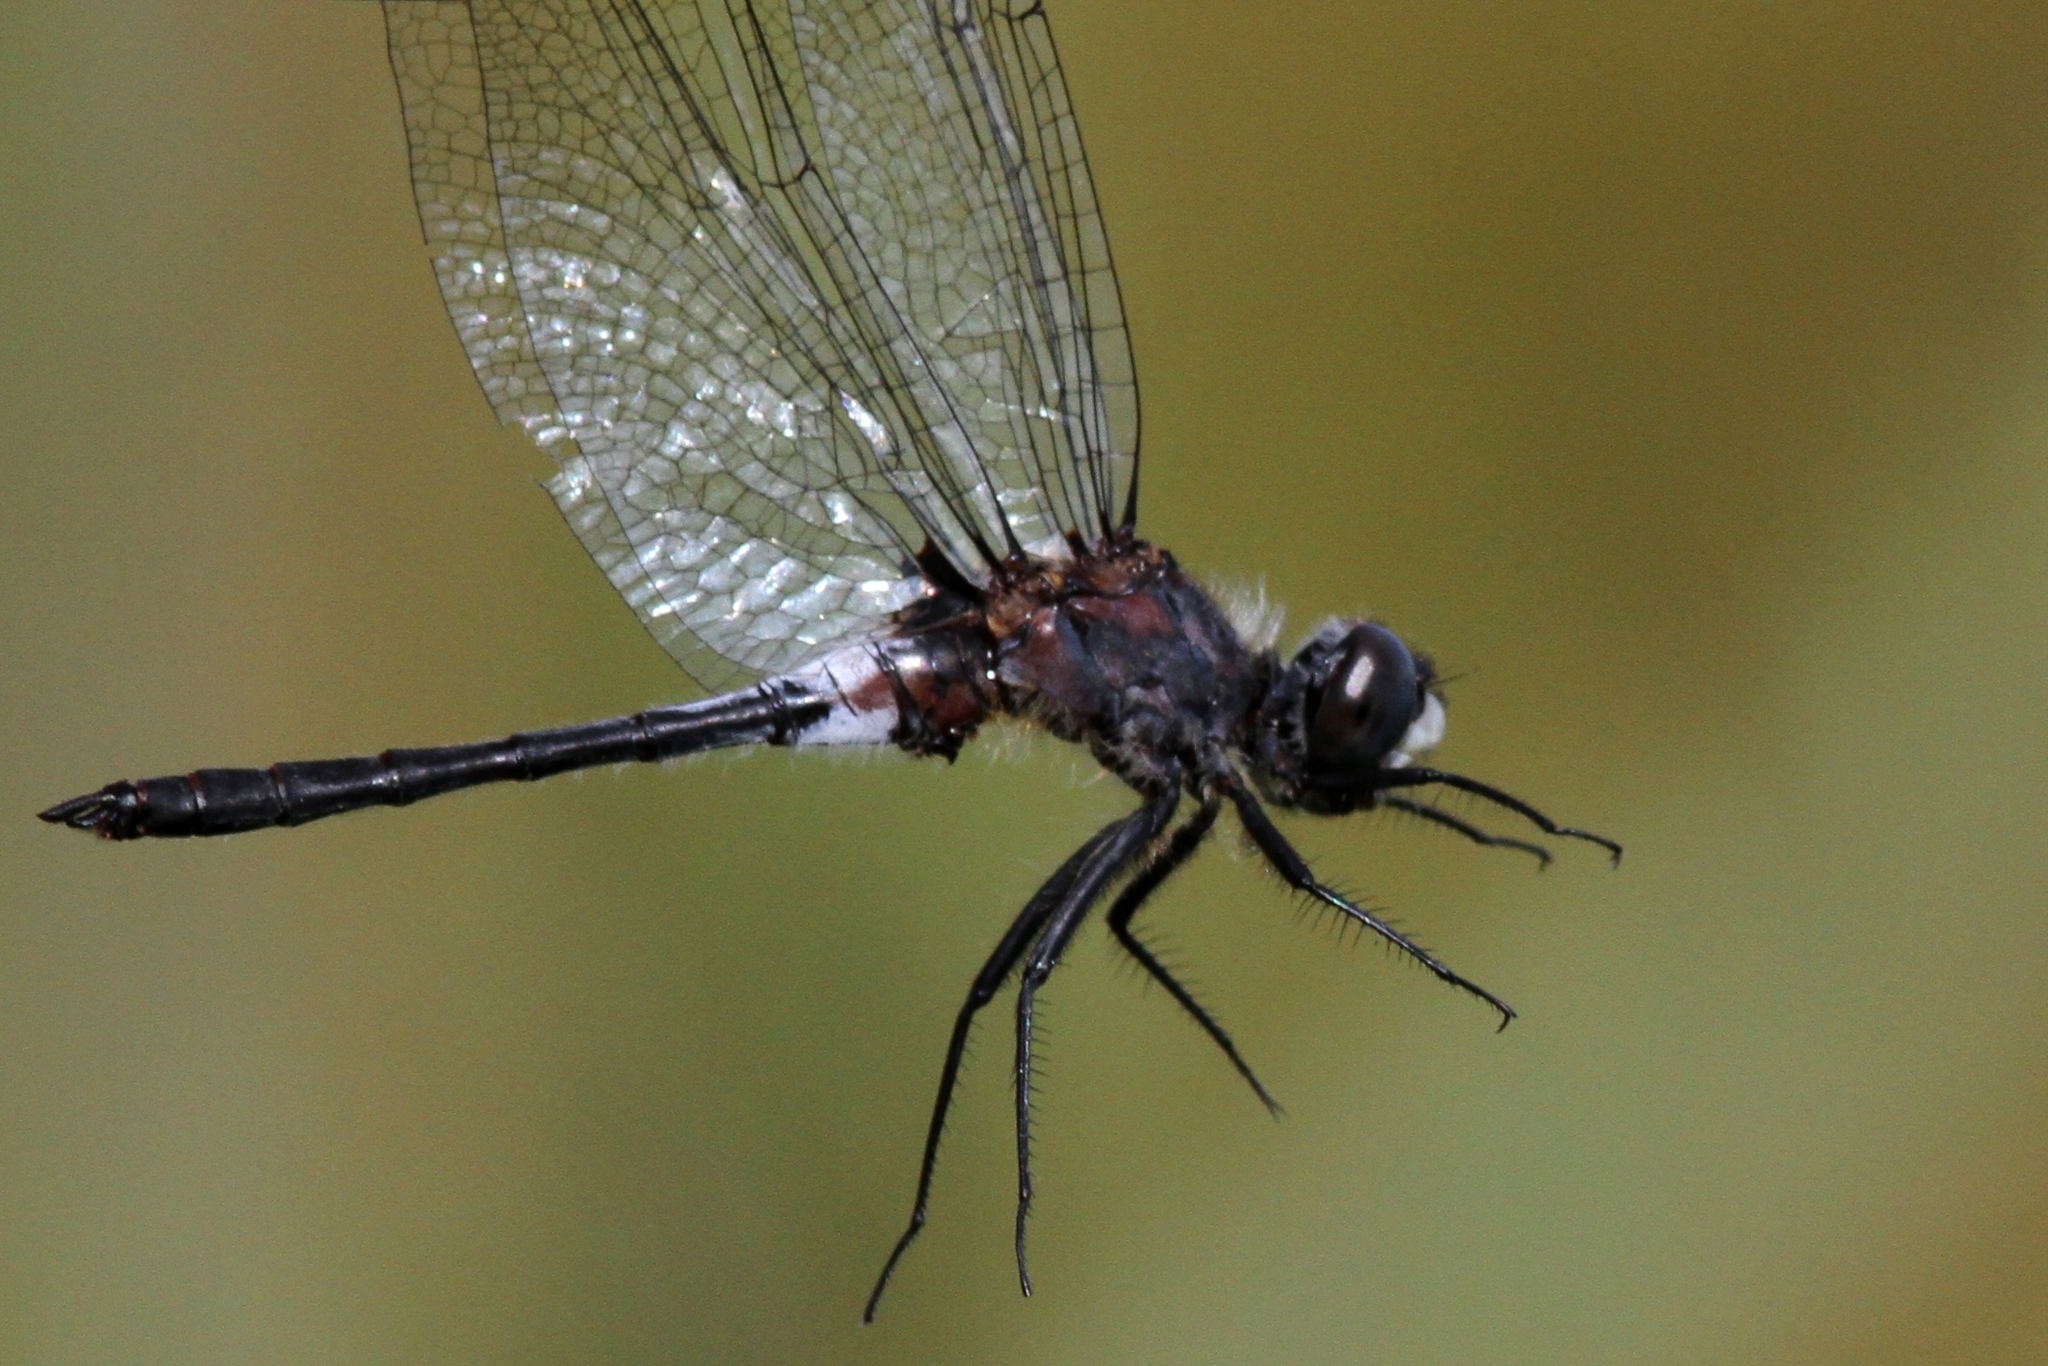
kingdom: Animalia
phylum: Arthropoda
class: Insecta
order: Odonata
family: Libellulidae
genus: Leucorrhinia
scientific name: Leucorrhinia proxima
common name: Belted whiteface
